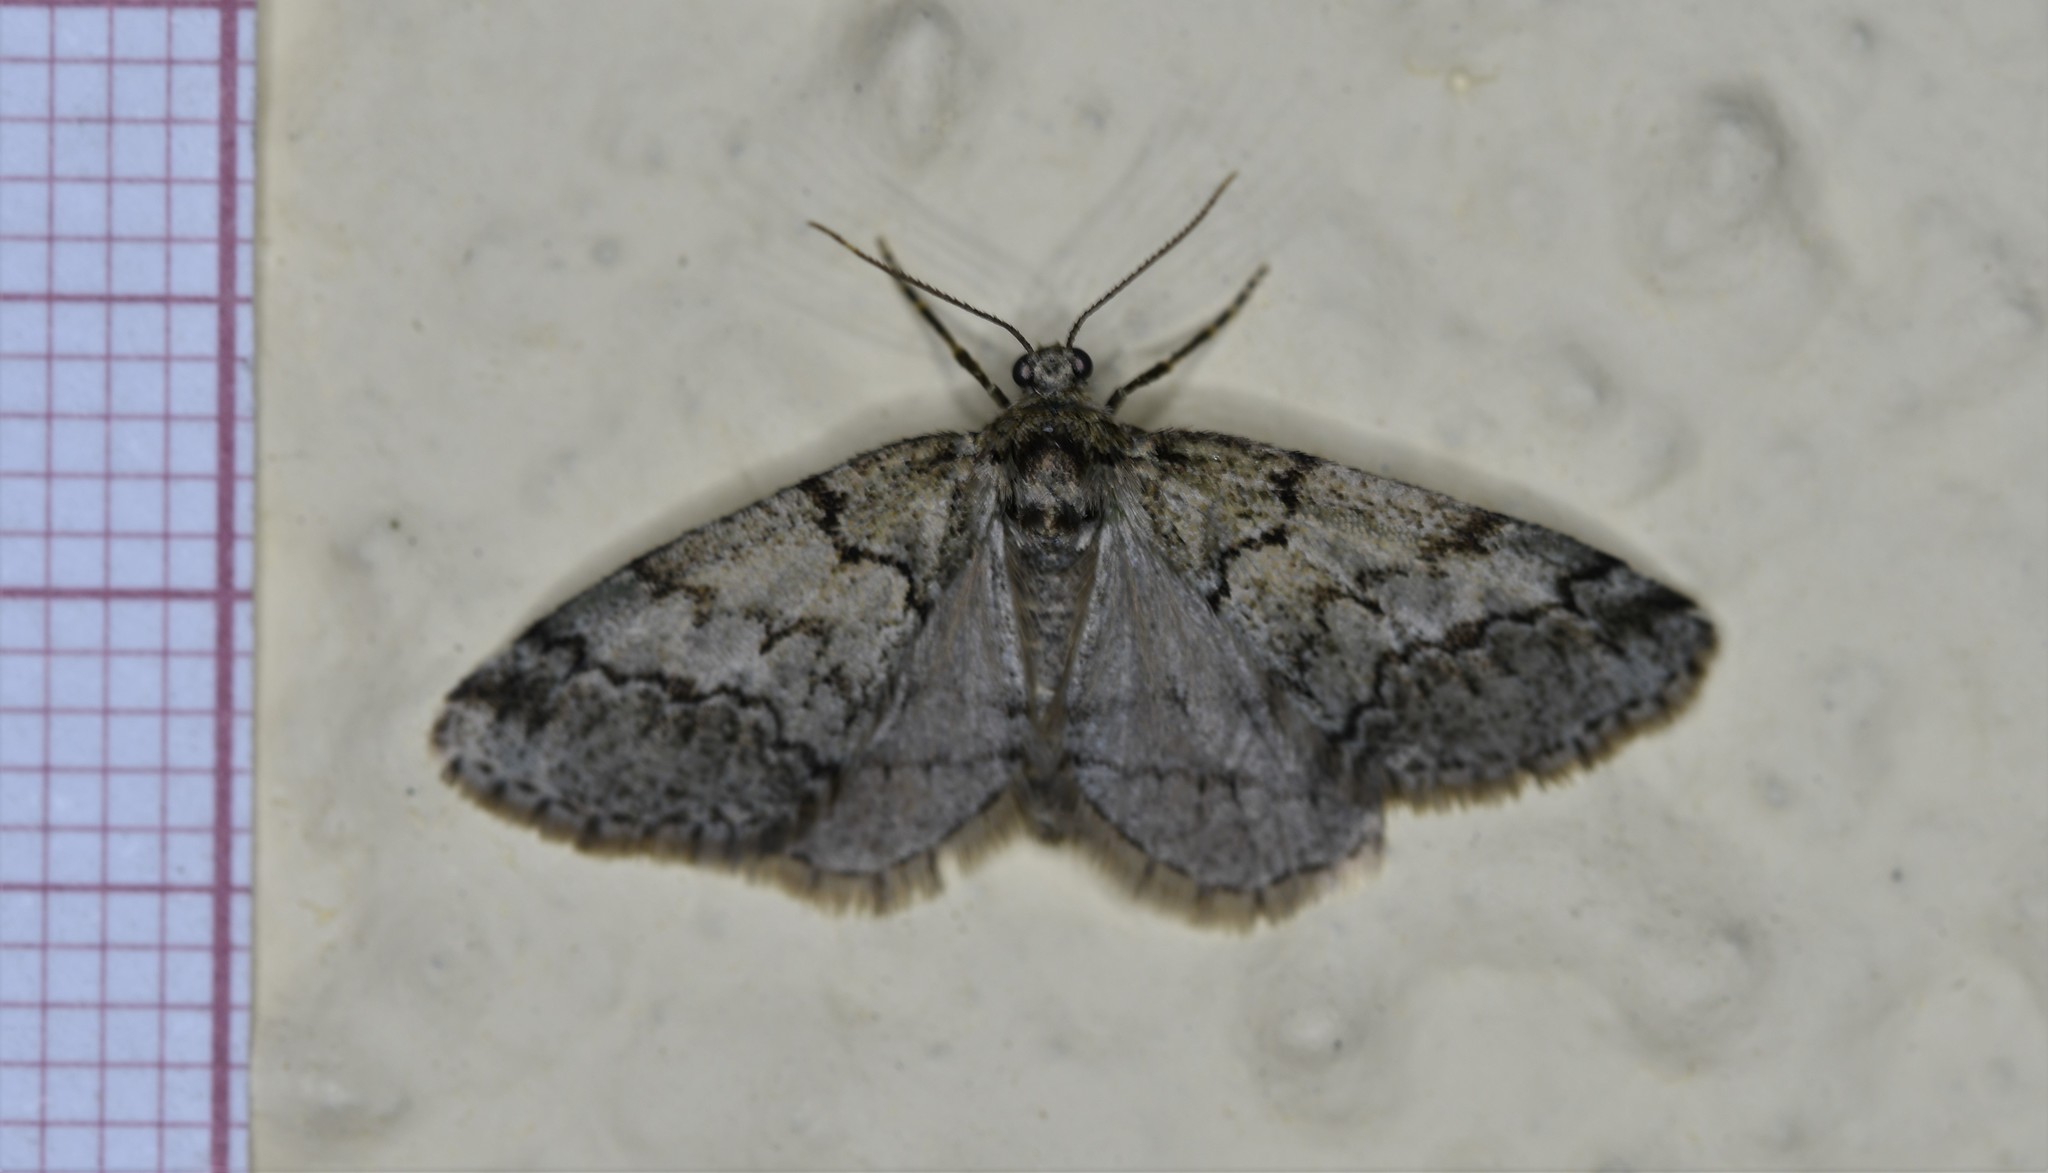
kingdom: Animalia
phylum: Arthropoda
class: Insecta
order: Lepidoptera
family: Geometridae
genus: Tephronia
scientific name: Tephronia lhommaria
